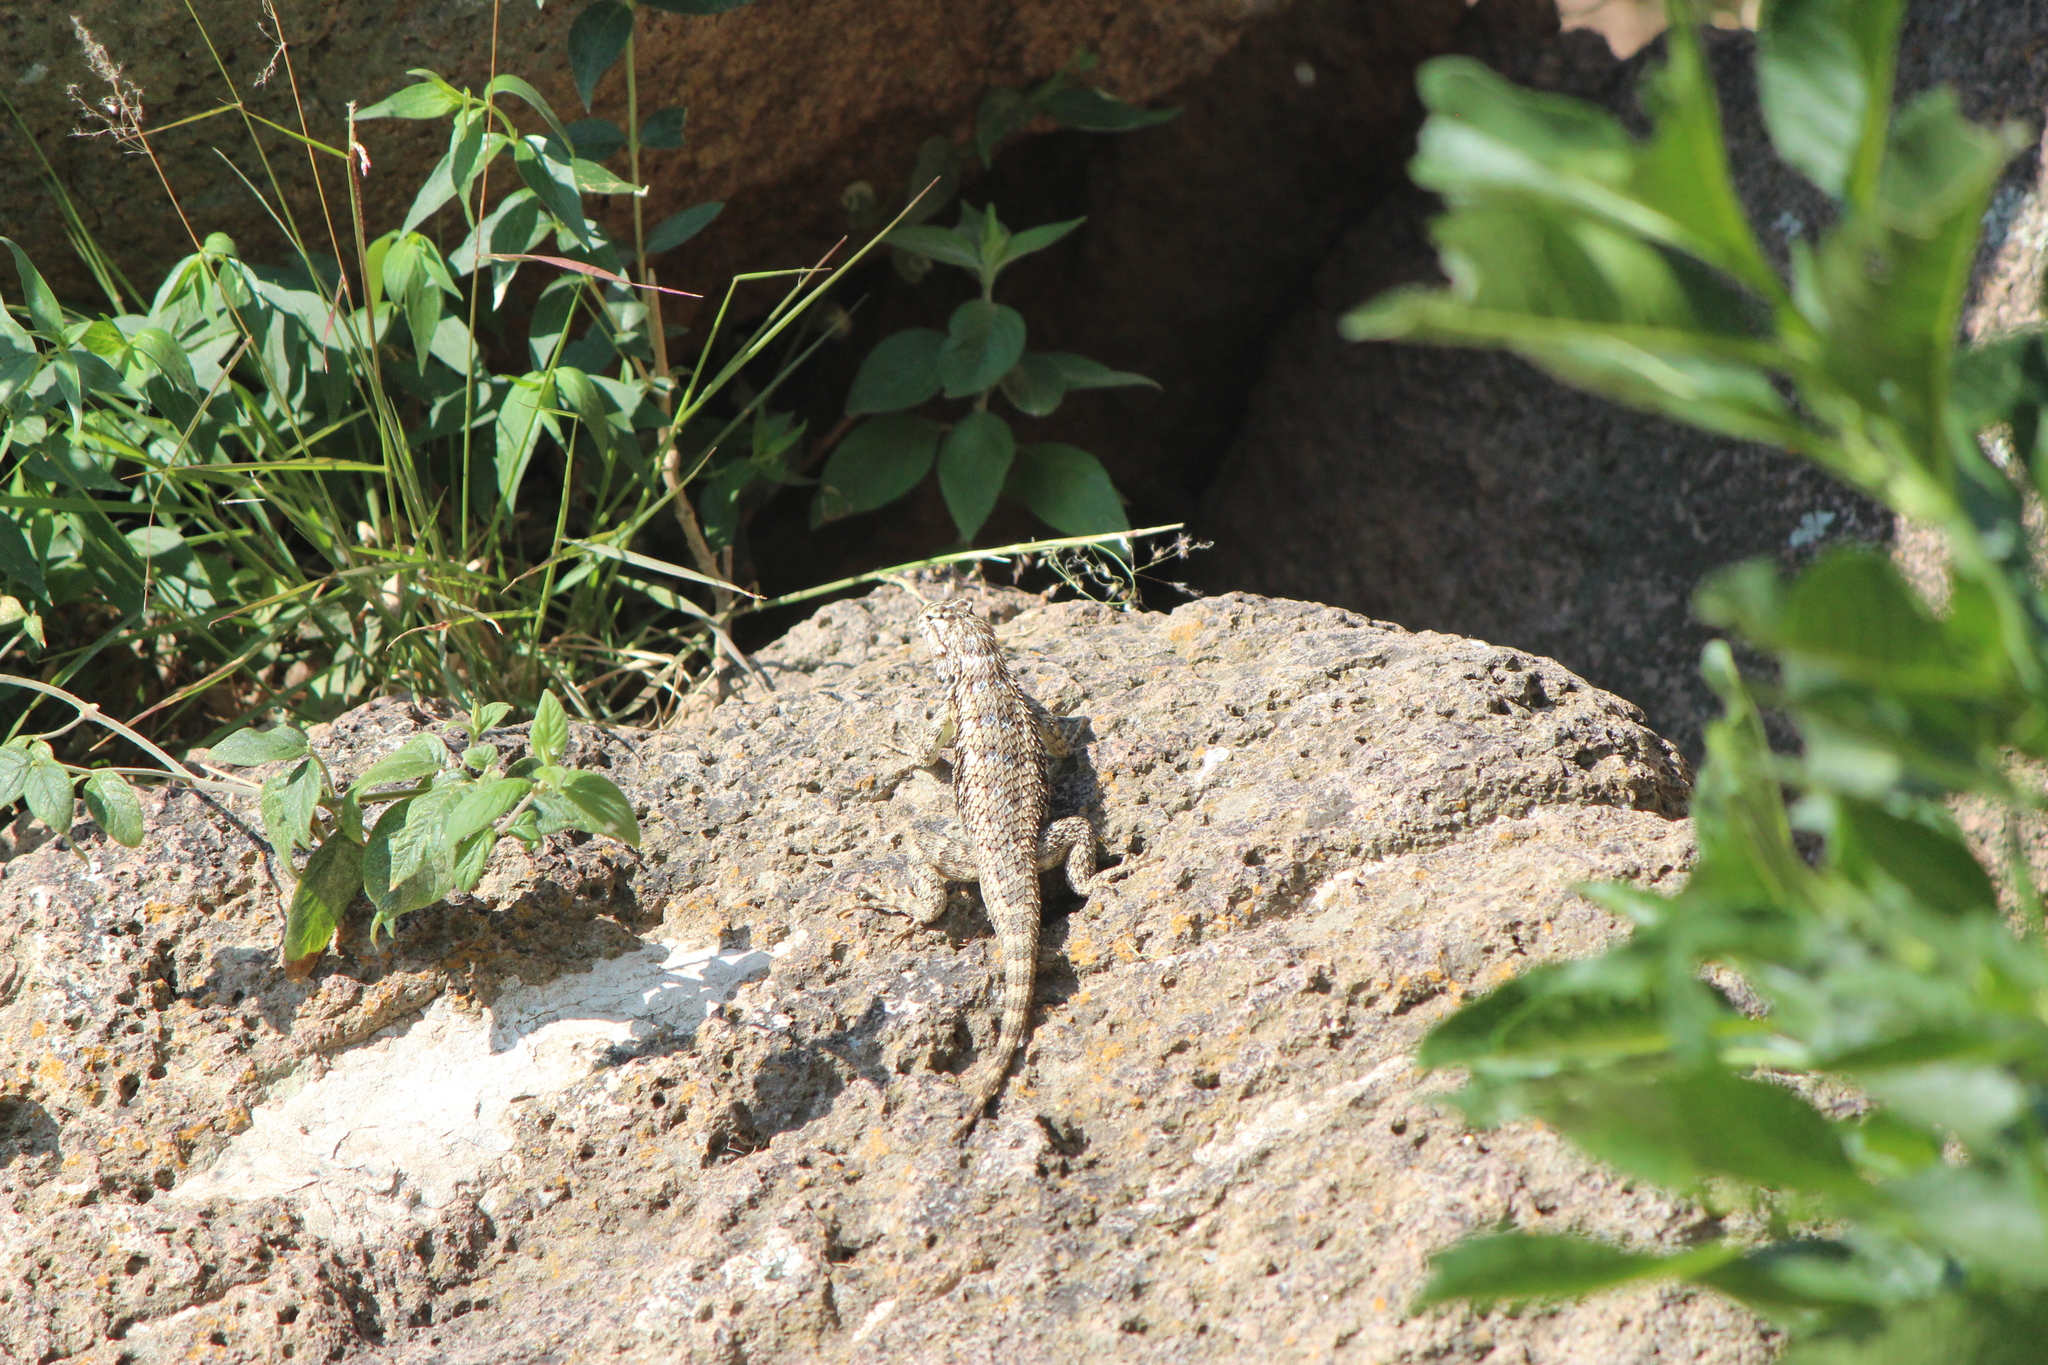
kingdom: Animalia
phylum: Chordata
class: Squamata
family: Phrynosomatidae
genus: Sceloporus
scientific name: Sceloporus spinosus
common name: Blue-spotted spiny lizard [caeruleopunctatus]
